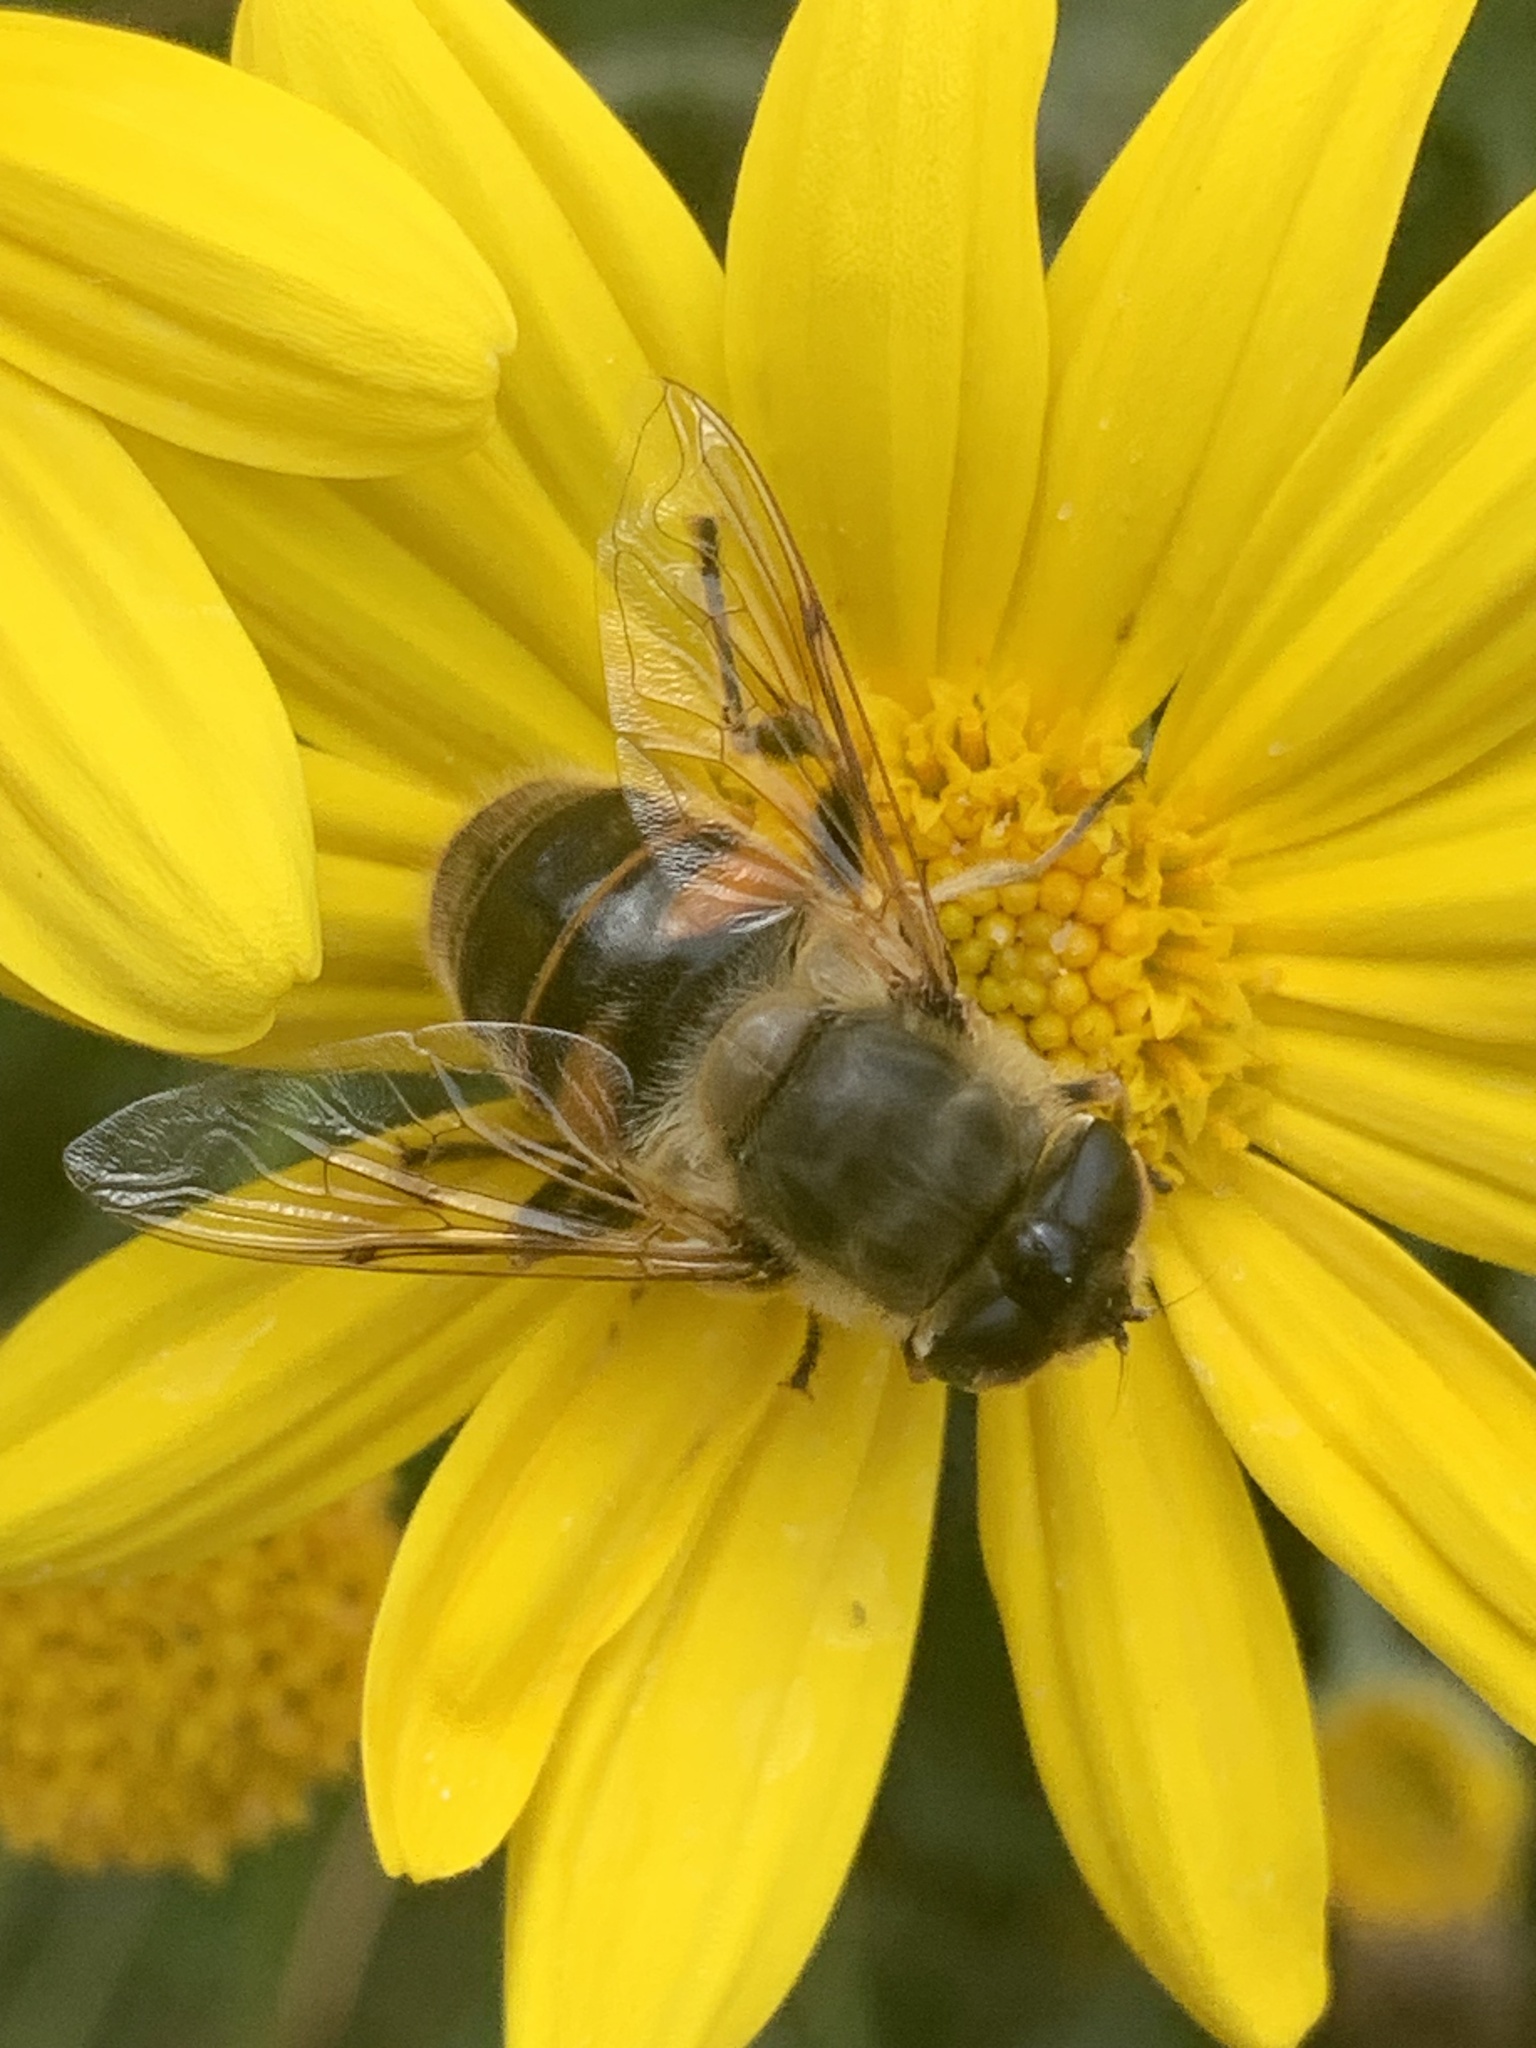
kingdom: Animalia
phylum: Arthropoda
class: Insecta
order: Diptera
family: Syrphidae
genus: Eristalis
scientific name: Eristalis tenax
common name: Drone fly
